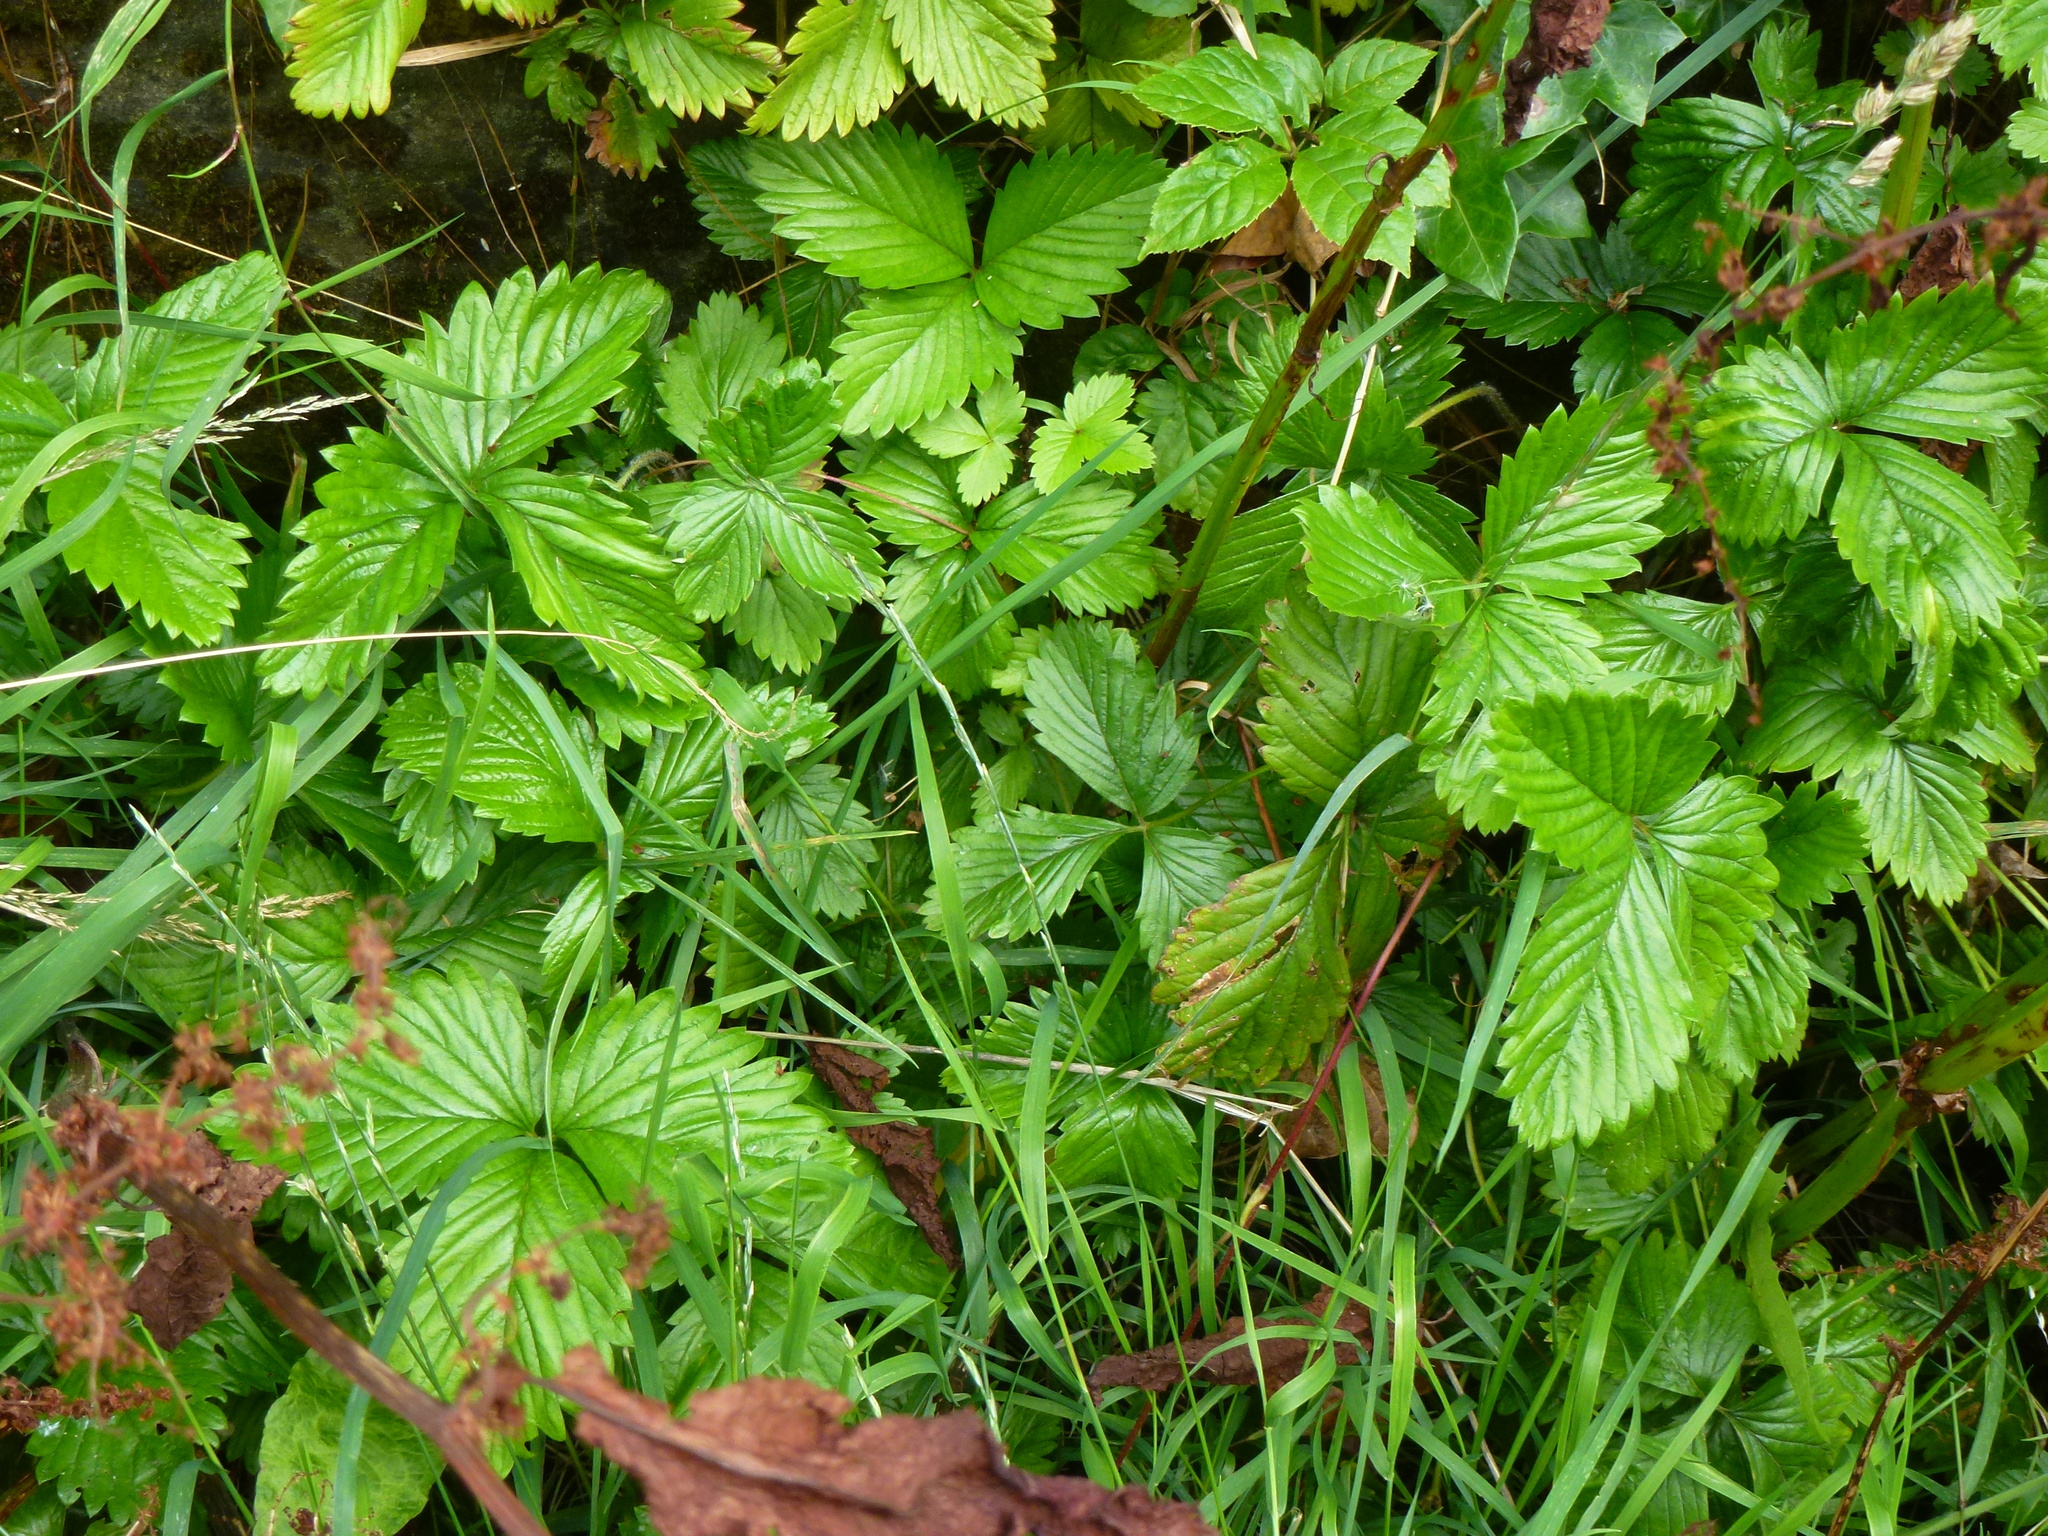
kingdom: Plantae
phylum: Tracheophyta
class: Magnoliopsida
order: Rosales
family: Rosaceae
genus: Fragaria
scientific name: Fragaria vesca
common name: Wild strawberry
